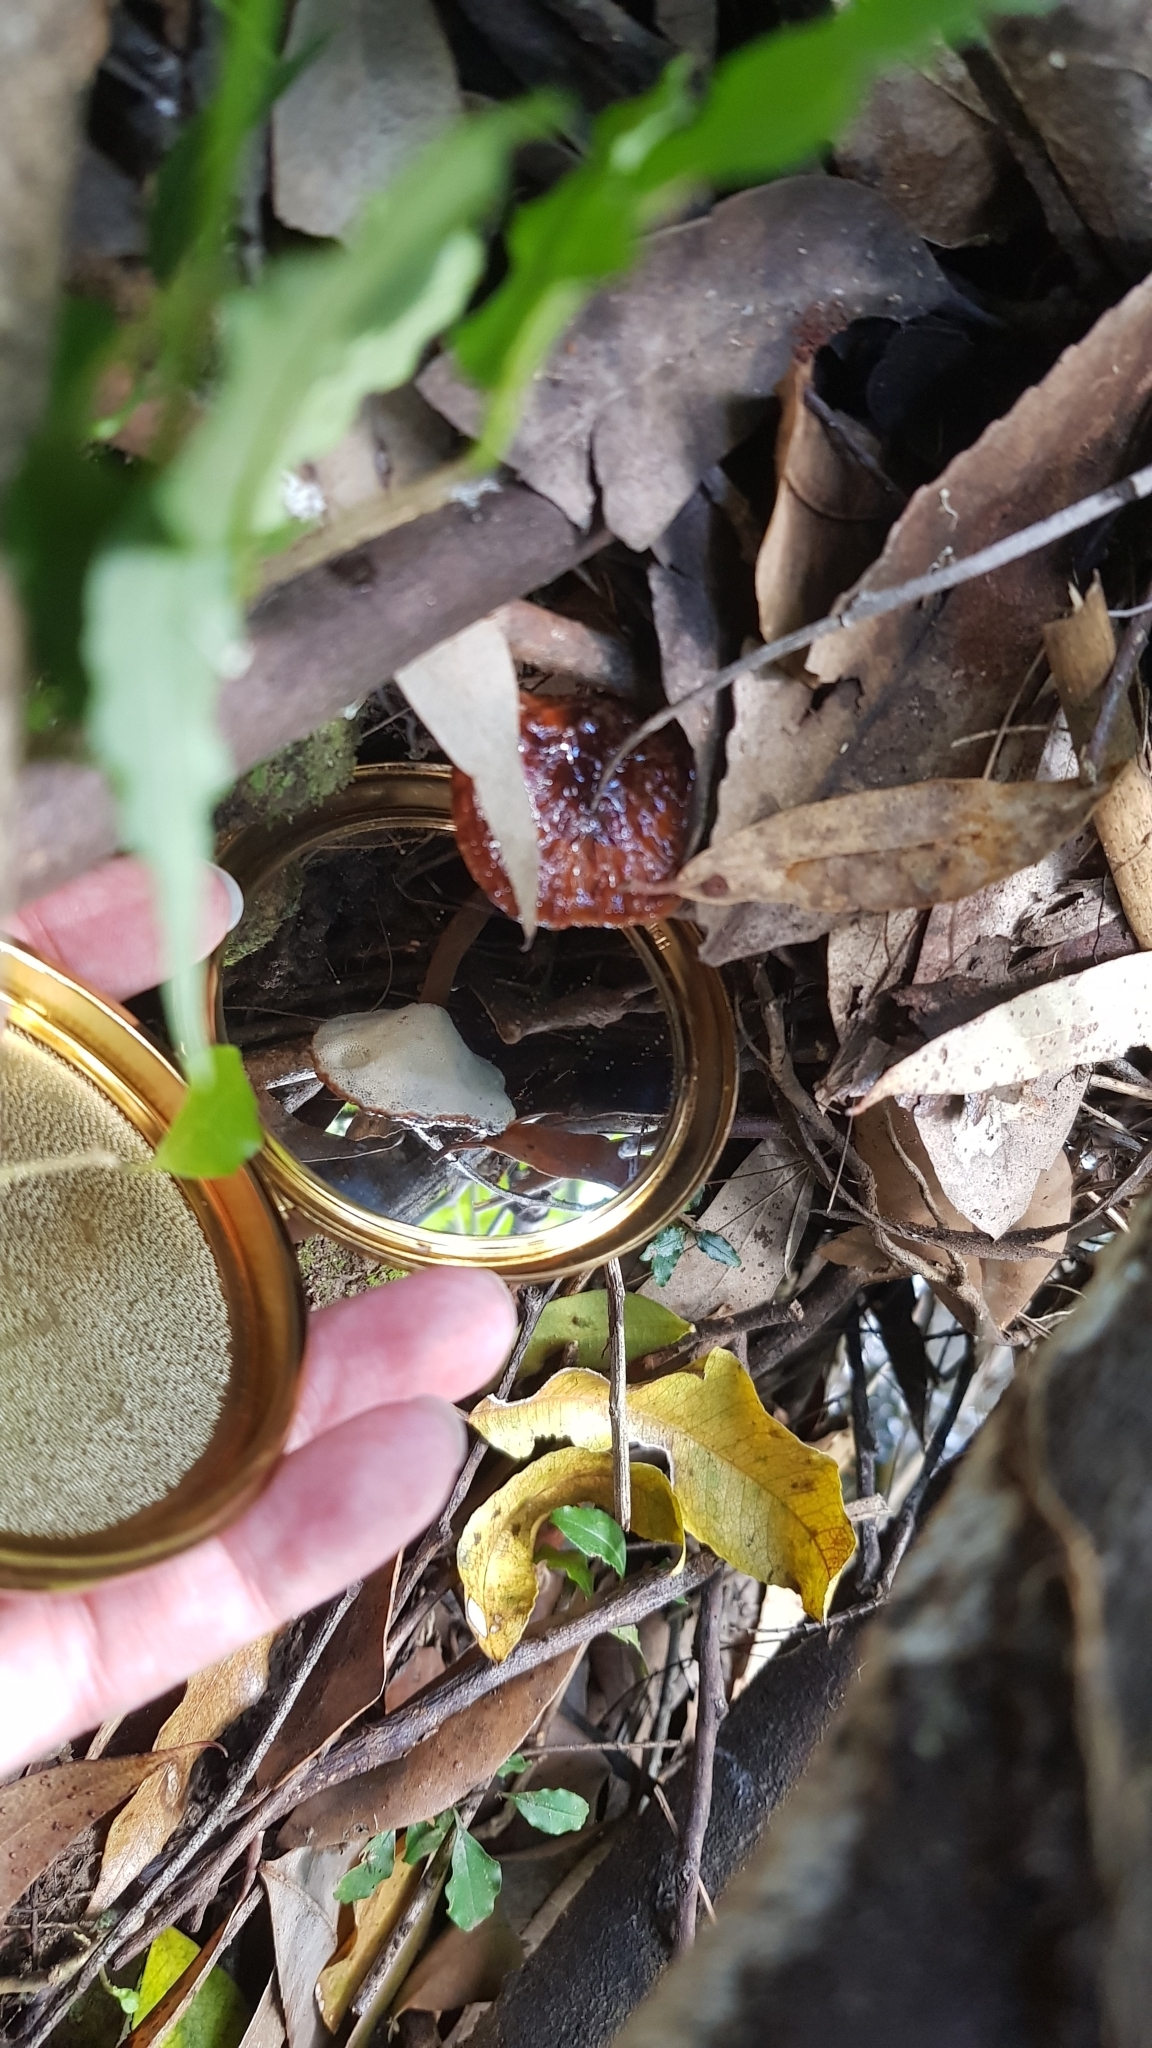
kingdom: Fungi
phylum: Basidiomycota
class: Agaricomycetes
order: Polyporales
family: Ganodermataceae
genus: Sanguinoderma
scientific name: Sanguinoderma rude
